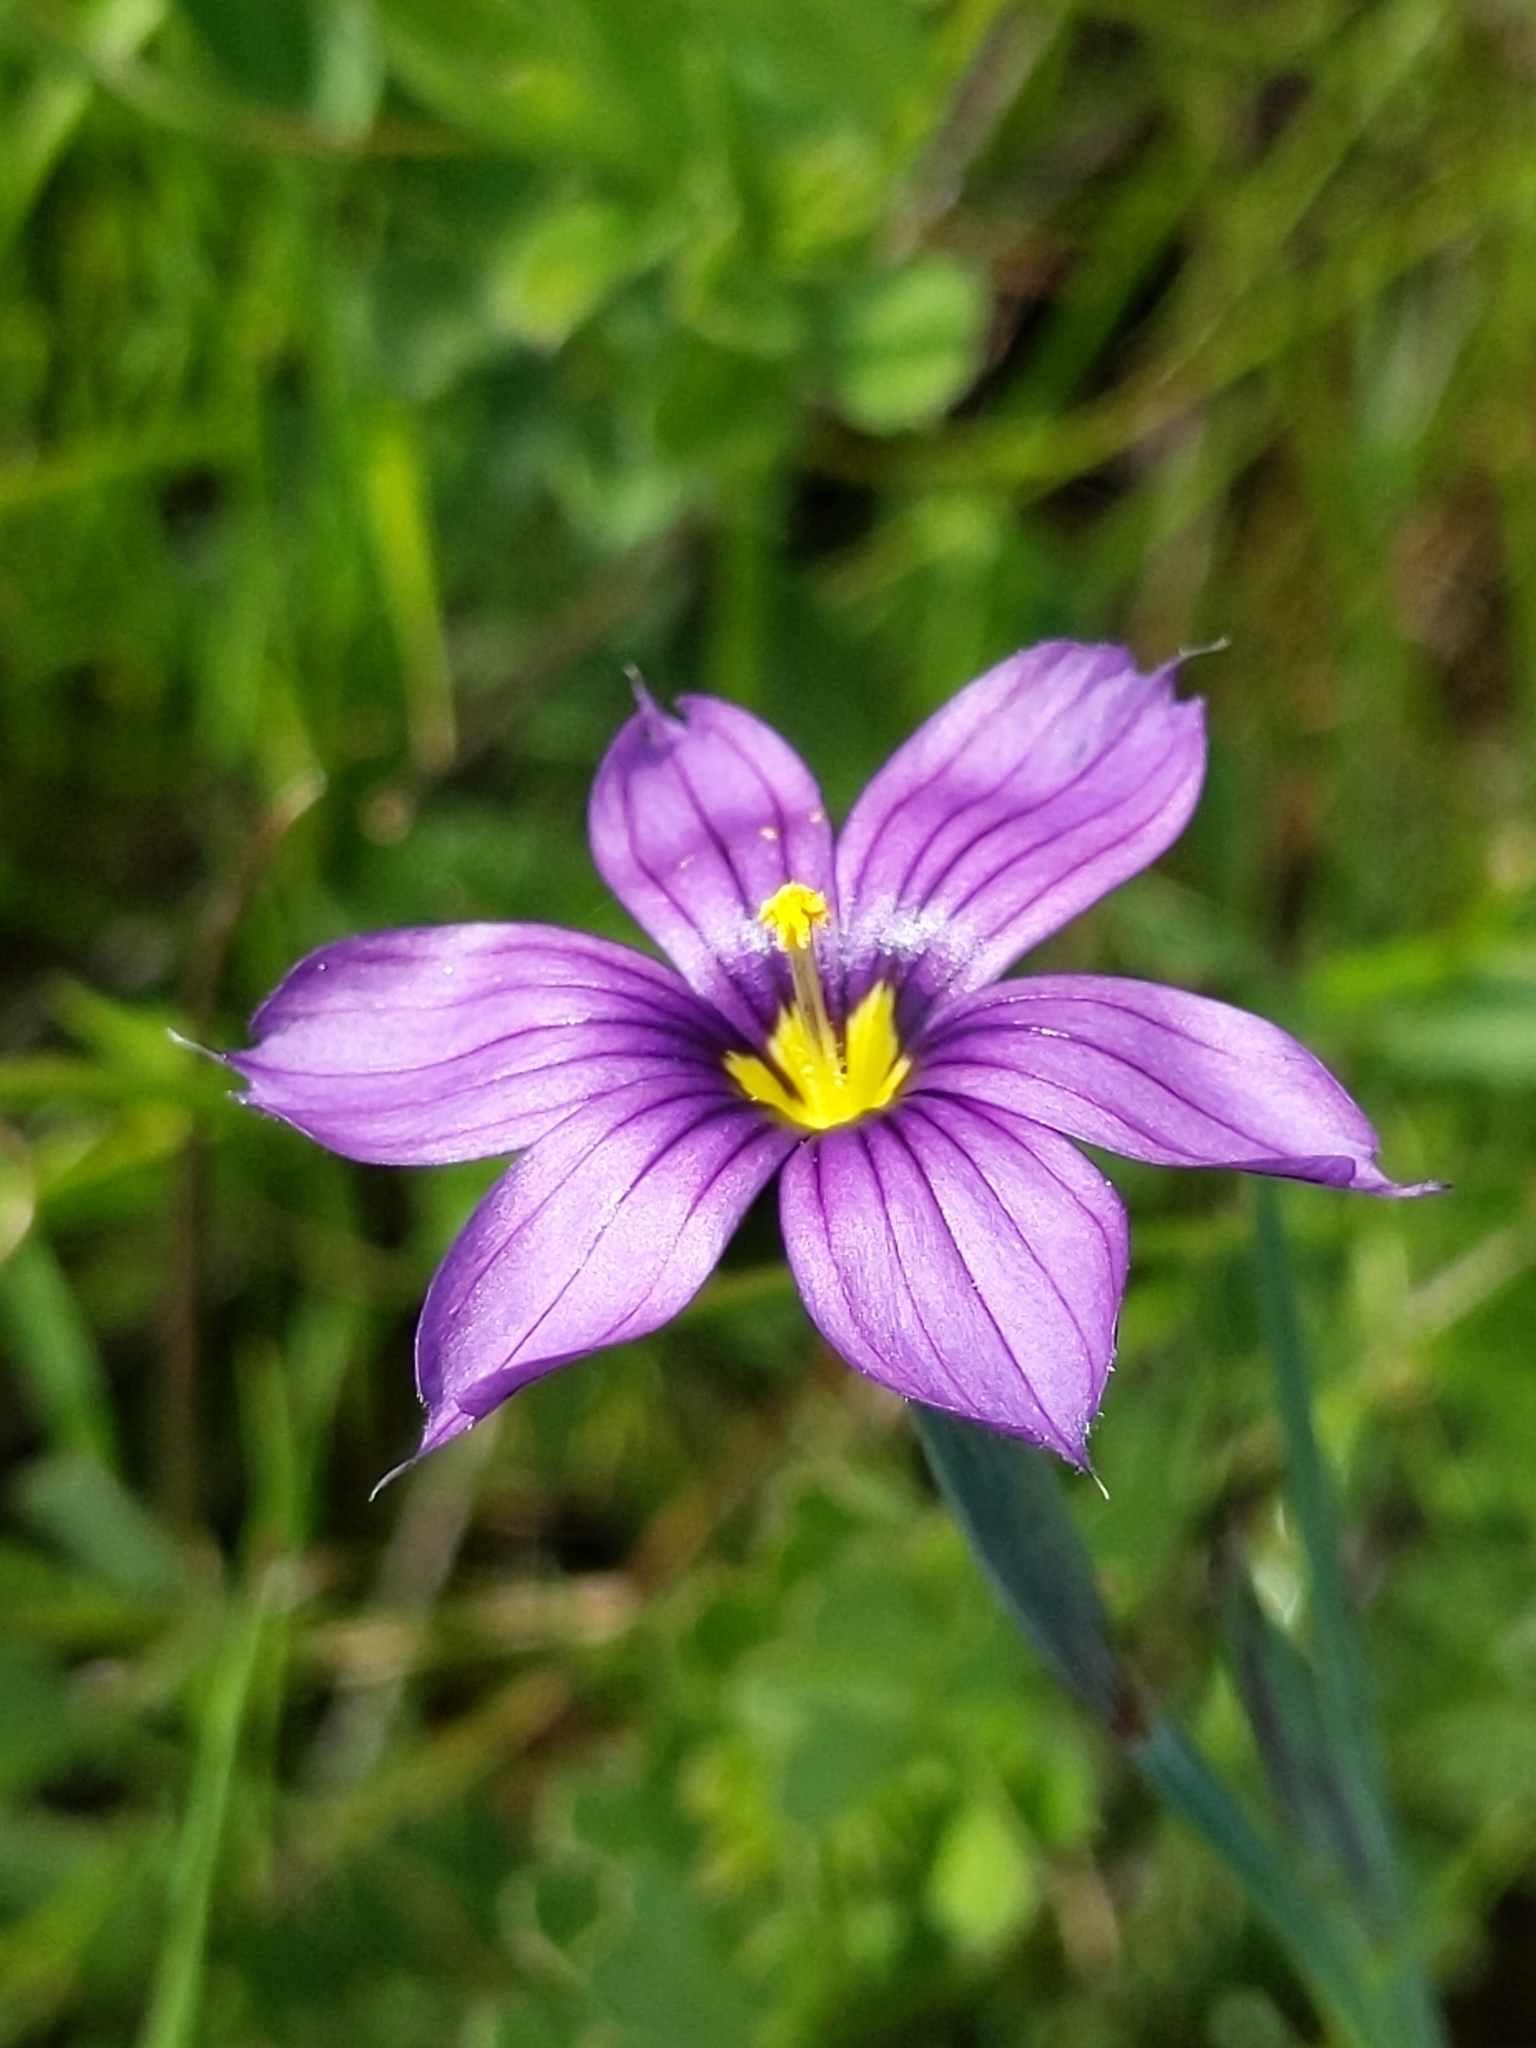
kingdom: Plantae
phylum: Tracheophyta
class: Liliopsida
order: Asparagales
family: Iridaceae
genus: Sisyrinchium
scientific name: Sisyrinchium bellum
